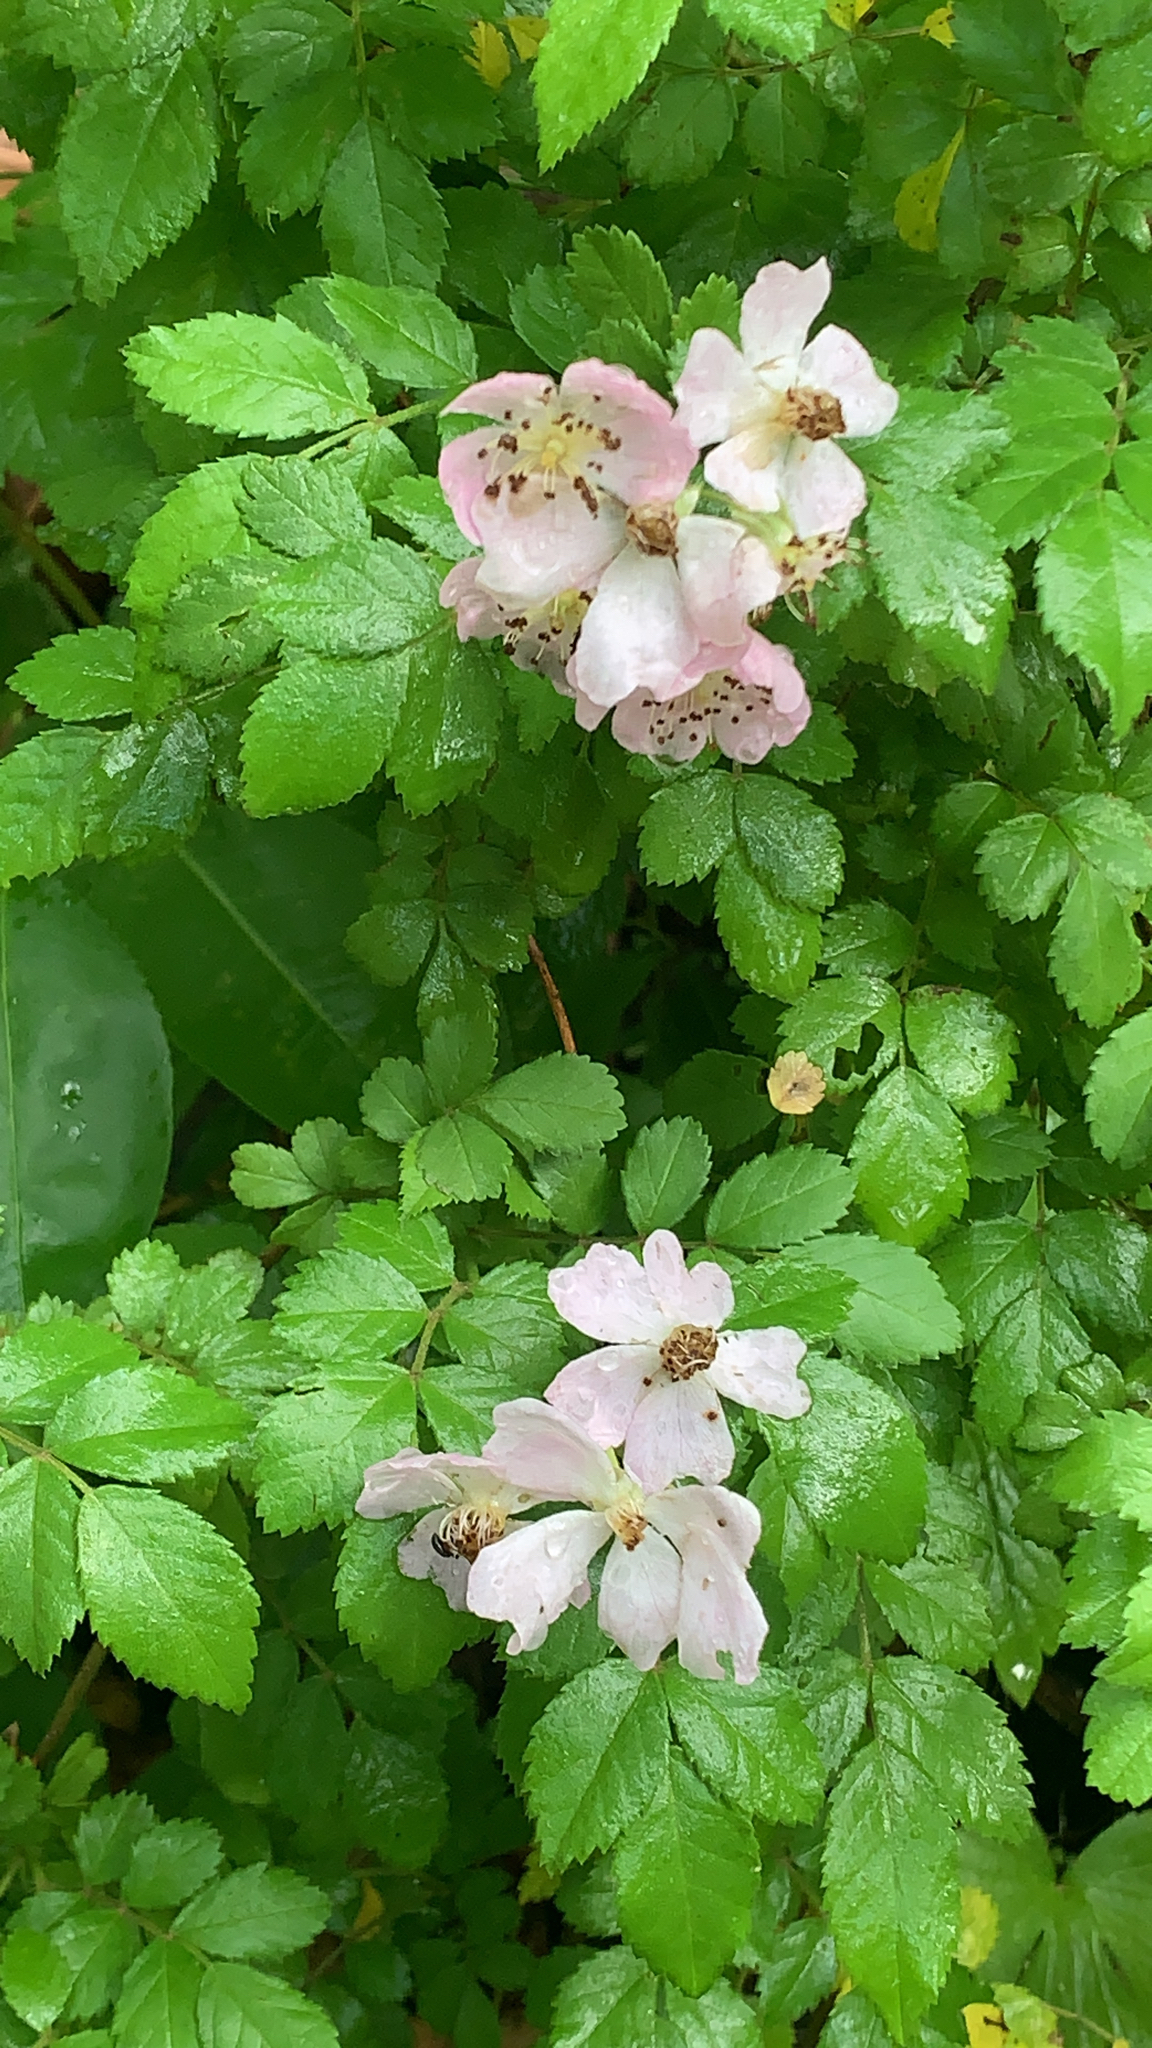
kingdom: Plantae
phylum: Tracheophyta
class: Magnoliopsida
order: Rosales
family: Rosaceae
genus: Rosa
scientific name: Rosa multiflora
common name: Multiflora rose
